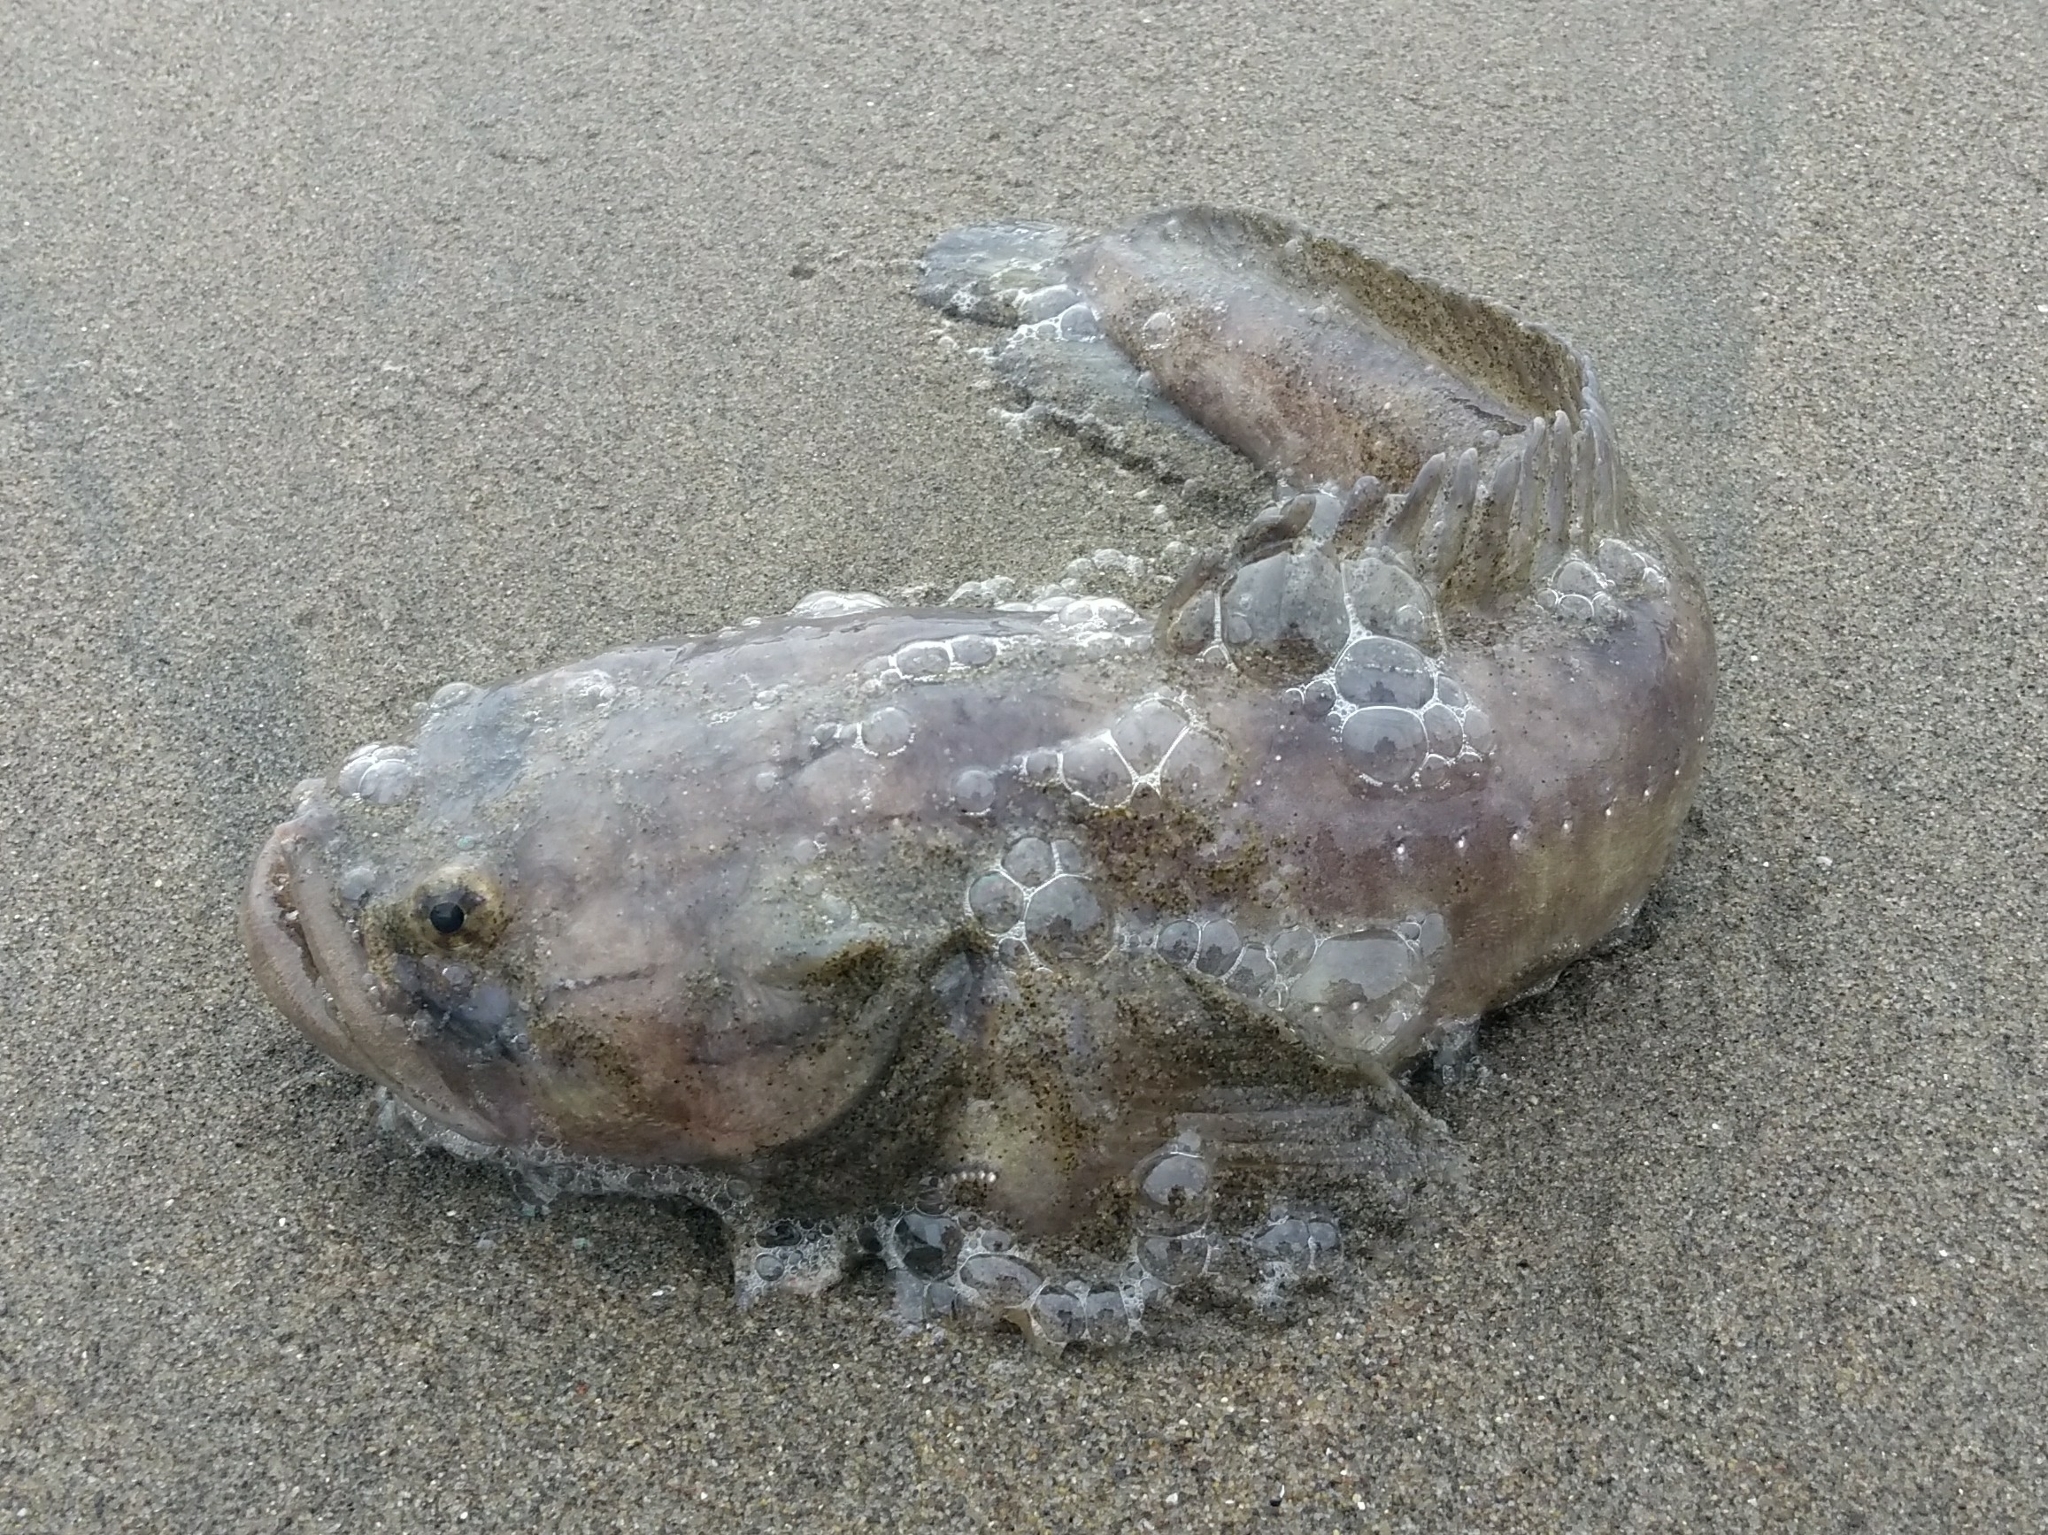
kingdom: Animalia
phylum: Chordata
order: Batrachoidiformes
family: Batrachoididae
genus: Porichthys
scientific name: Porichthys
